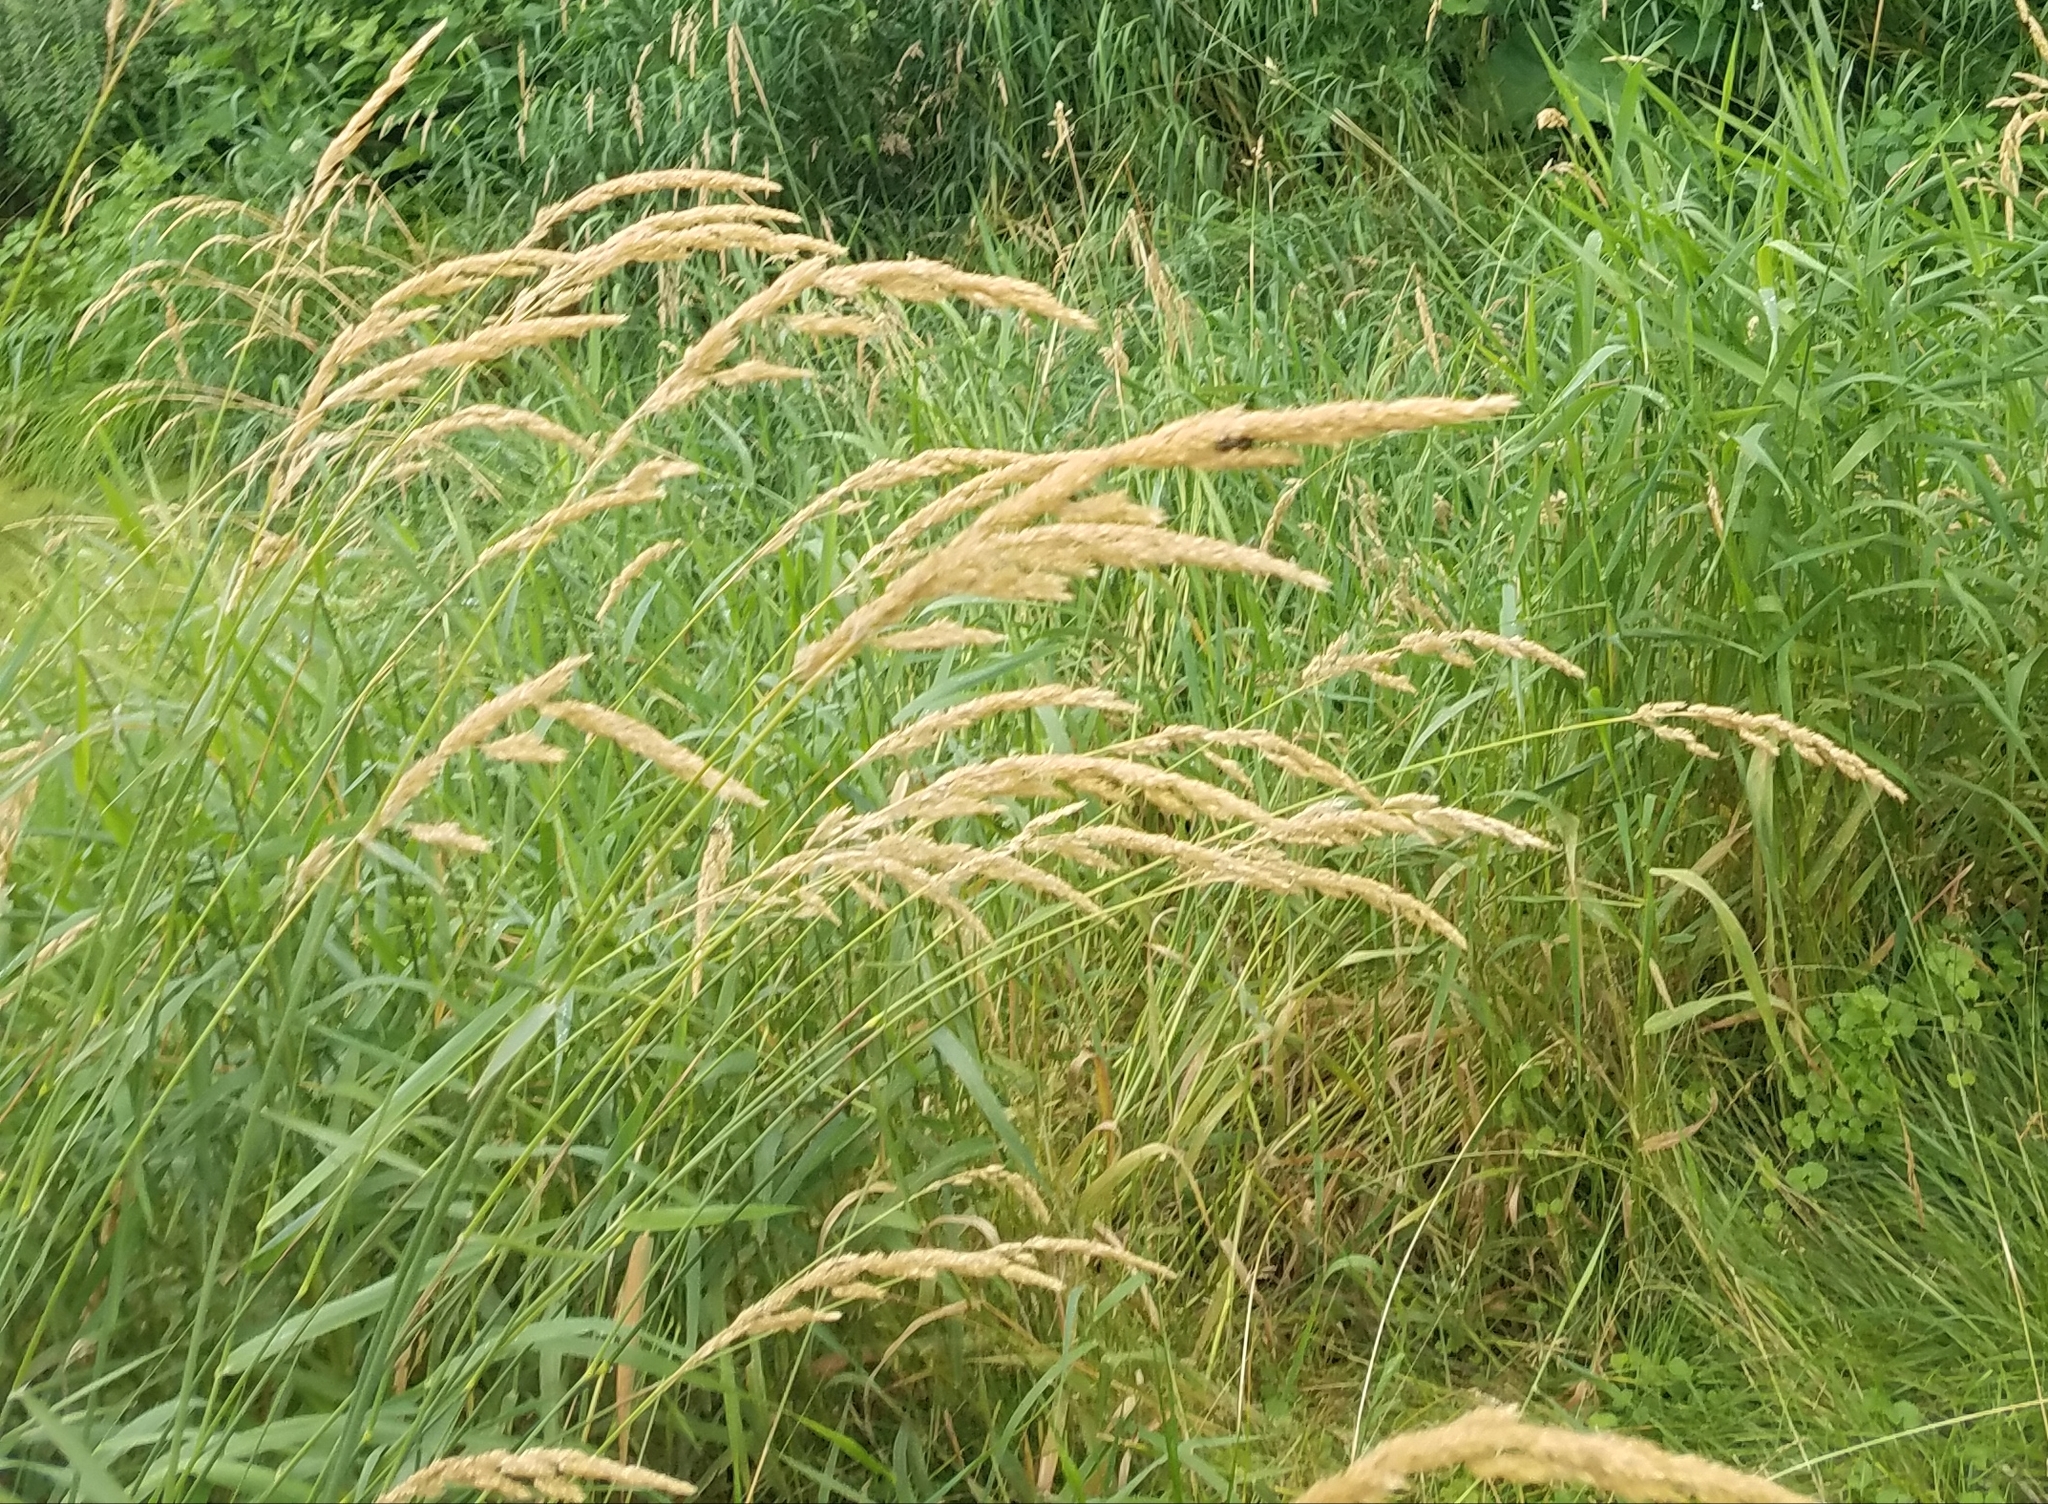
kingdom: Plantae
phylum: Tracheophyta
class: Liliopsida
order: Poales
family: Poaceae
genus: Phalaris
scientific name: Phalaris arundinacea
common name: Reed canary-grass
